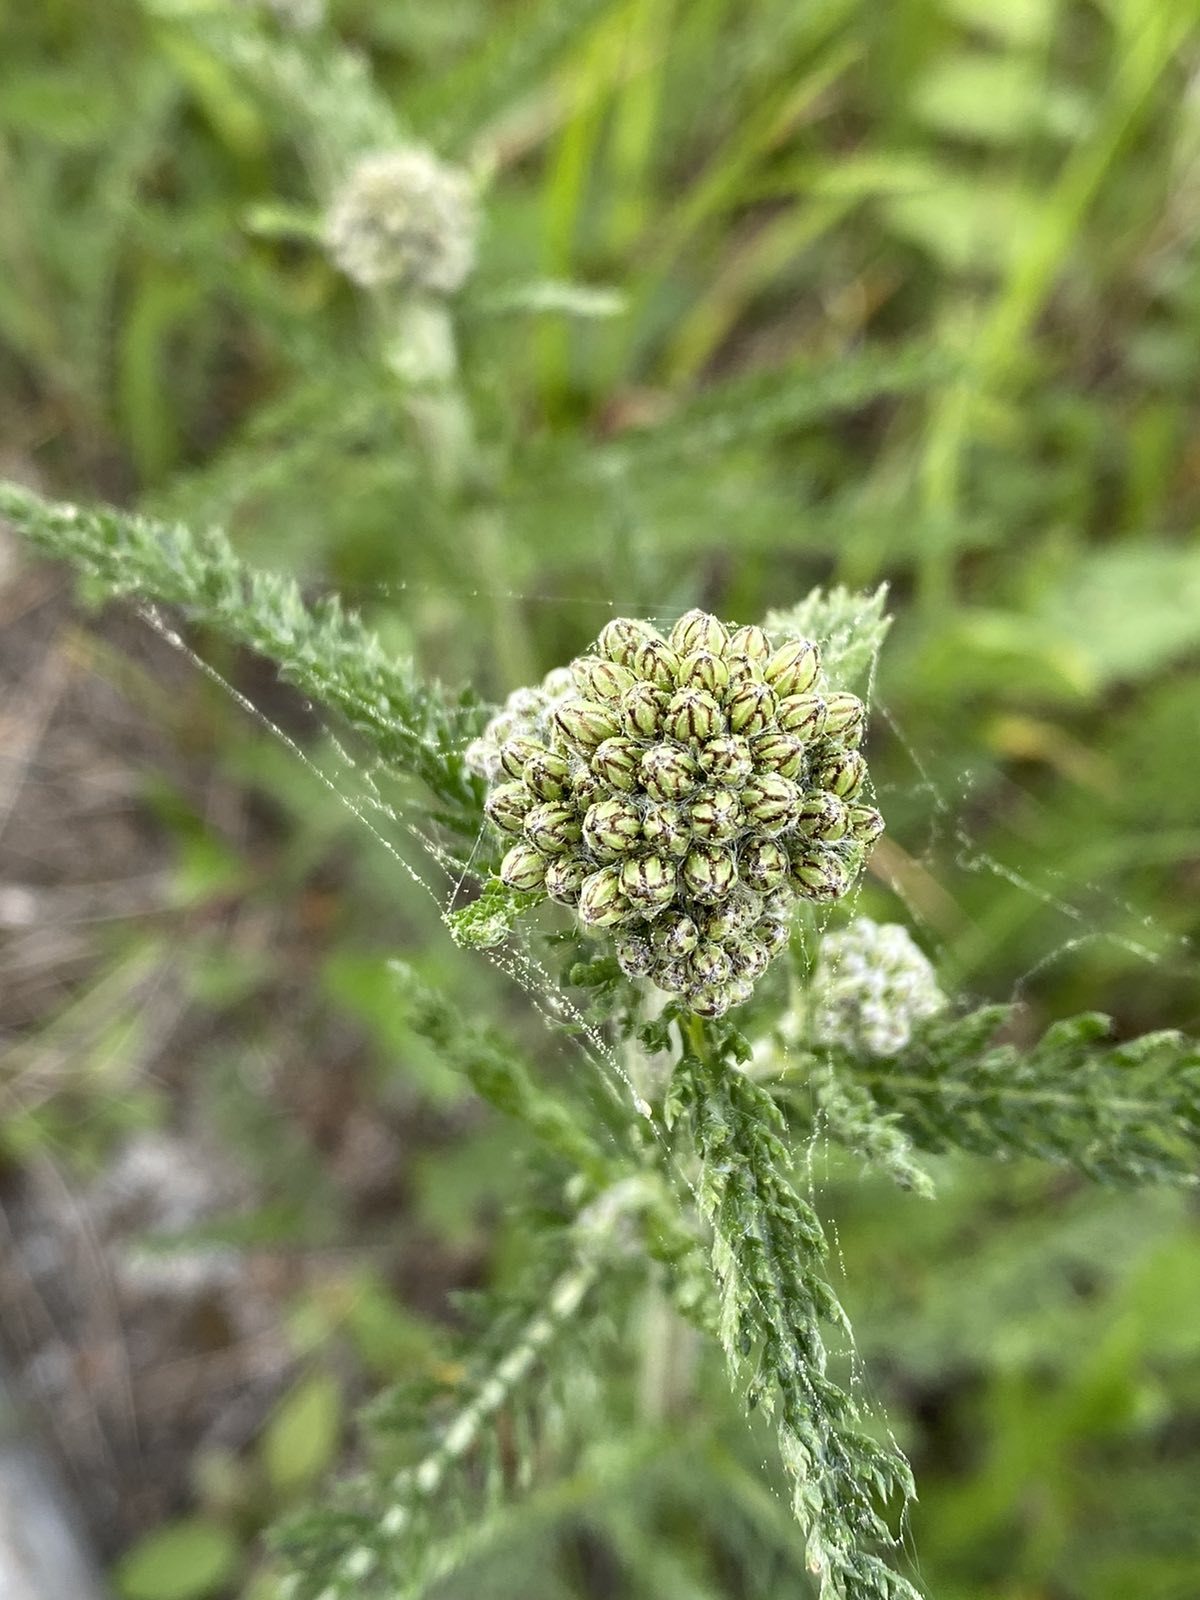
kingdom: Plantae
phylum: Tracheophyta
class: Magnoliopsida
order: Asterales
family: Asteraceae
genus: Achillea
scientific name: Achillea millefolium
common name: Yarrow
